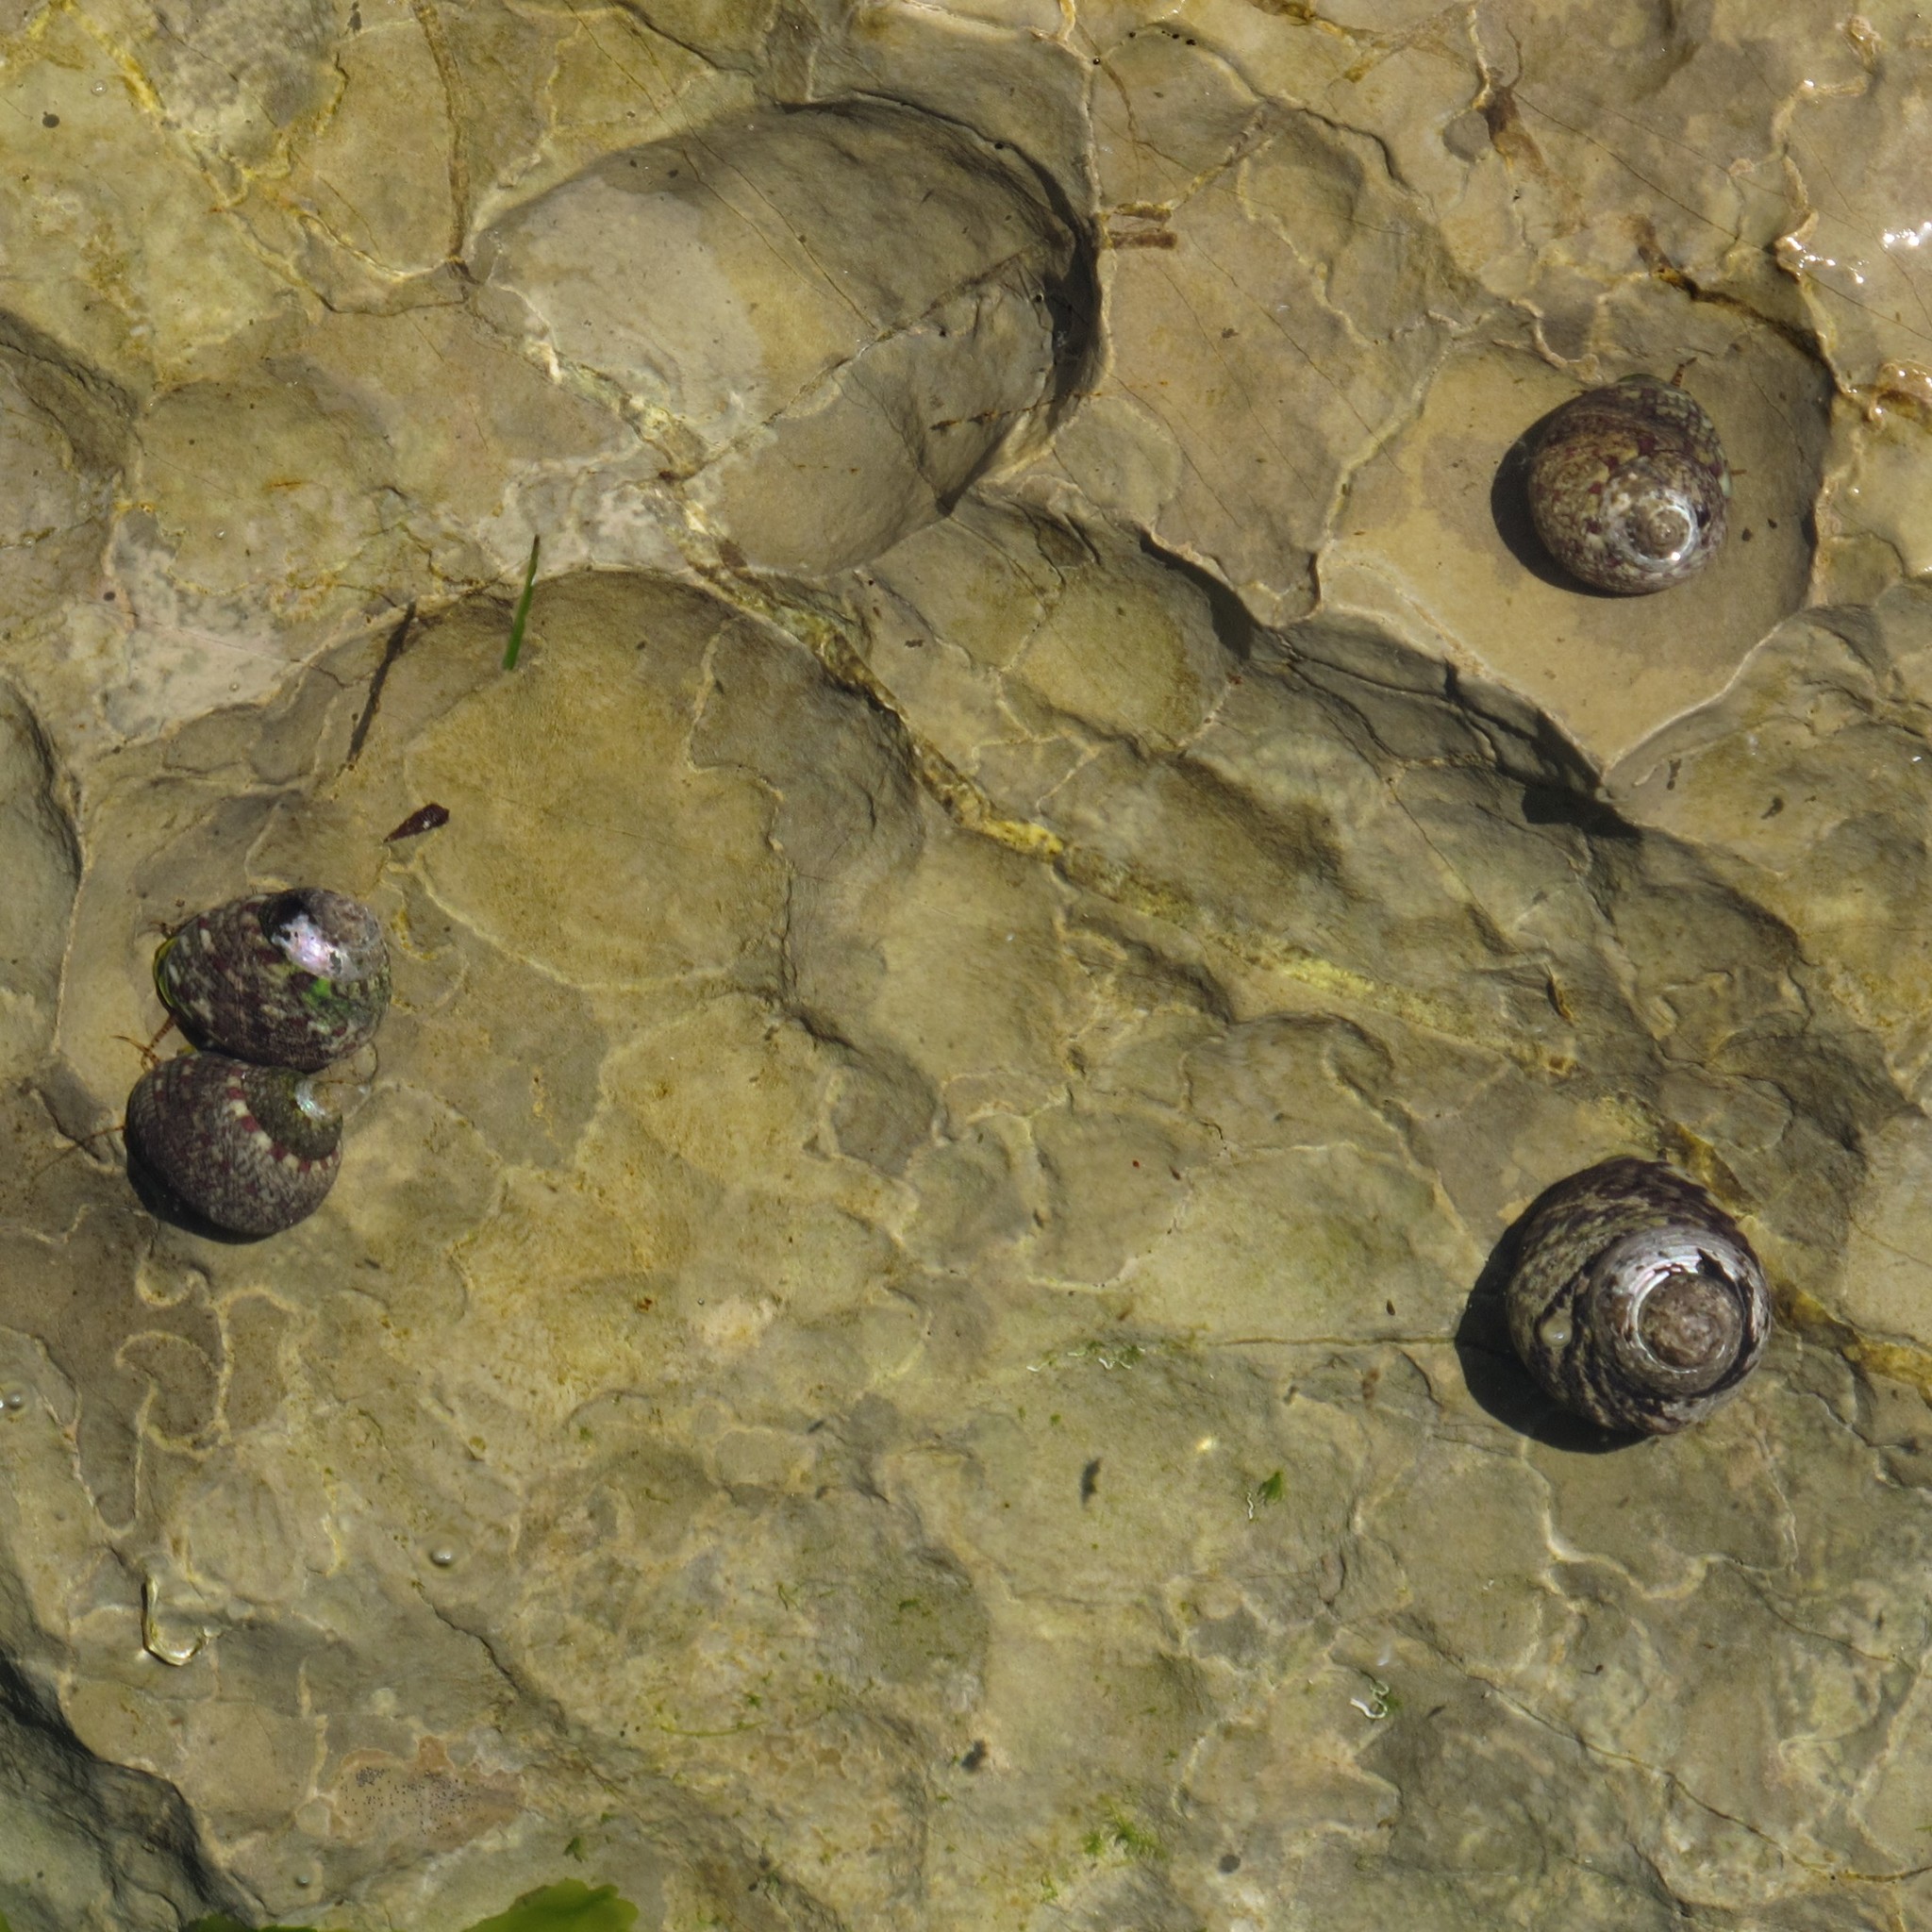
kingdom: Animalia
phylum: Mollusca
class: Gastropoda
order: Trochida
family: Trochidae
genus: Phorcus
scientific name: Phorcus articulatus
